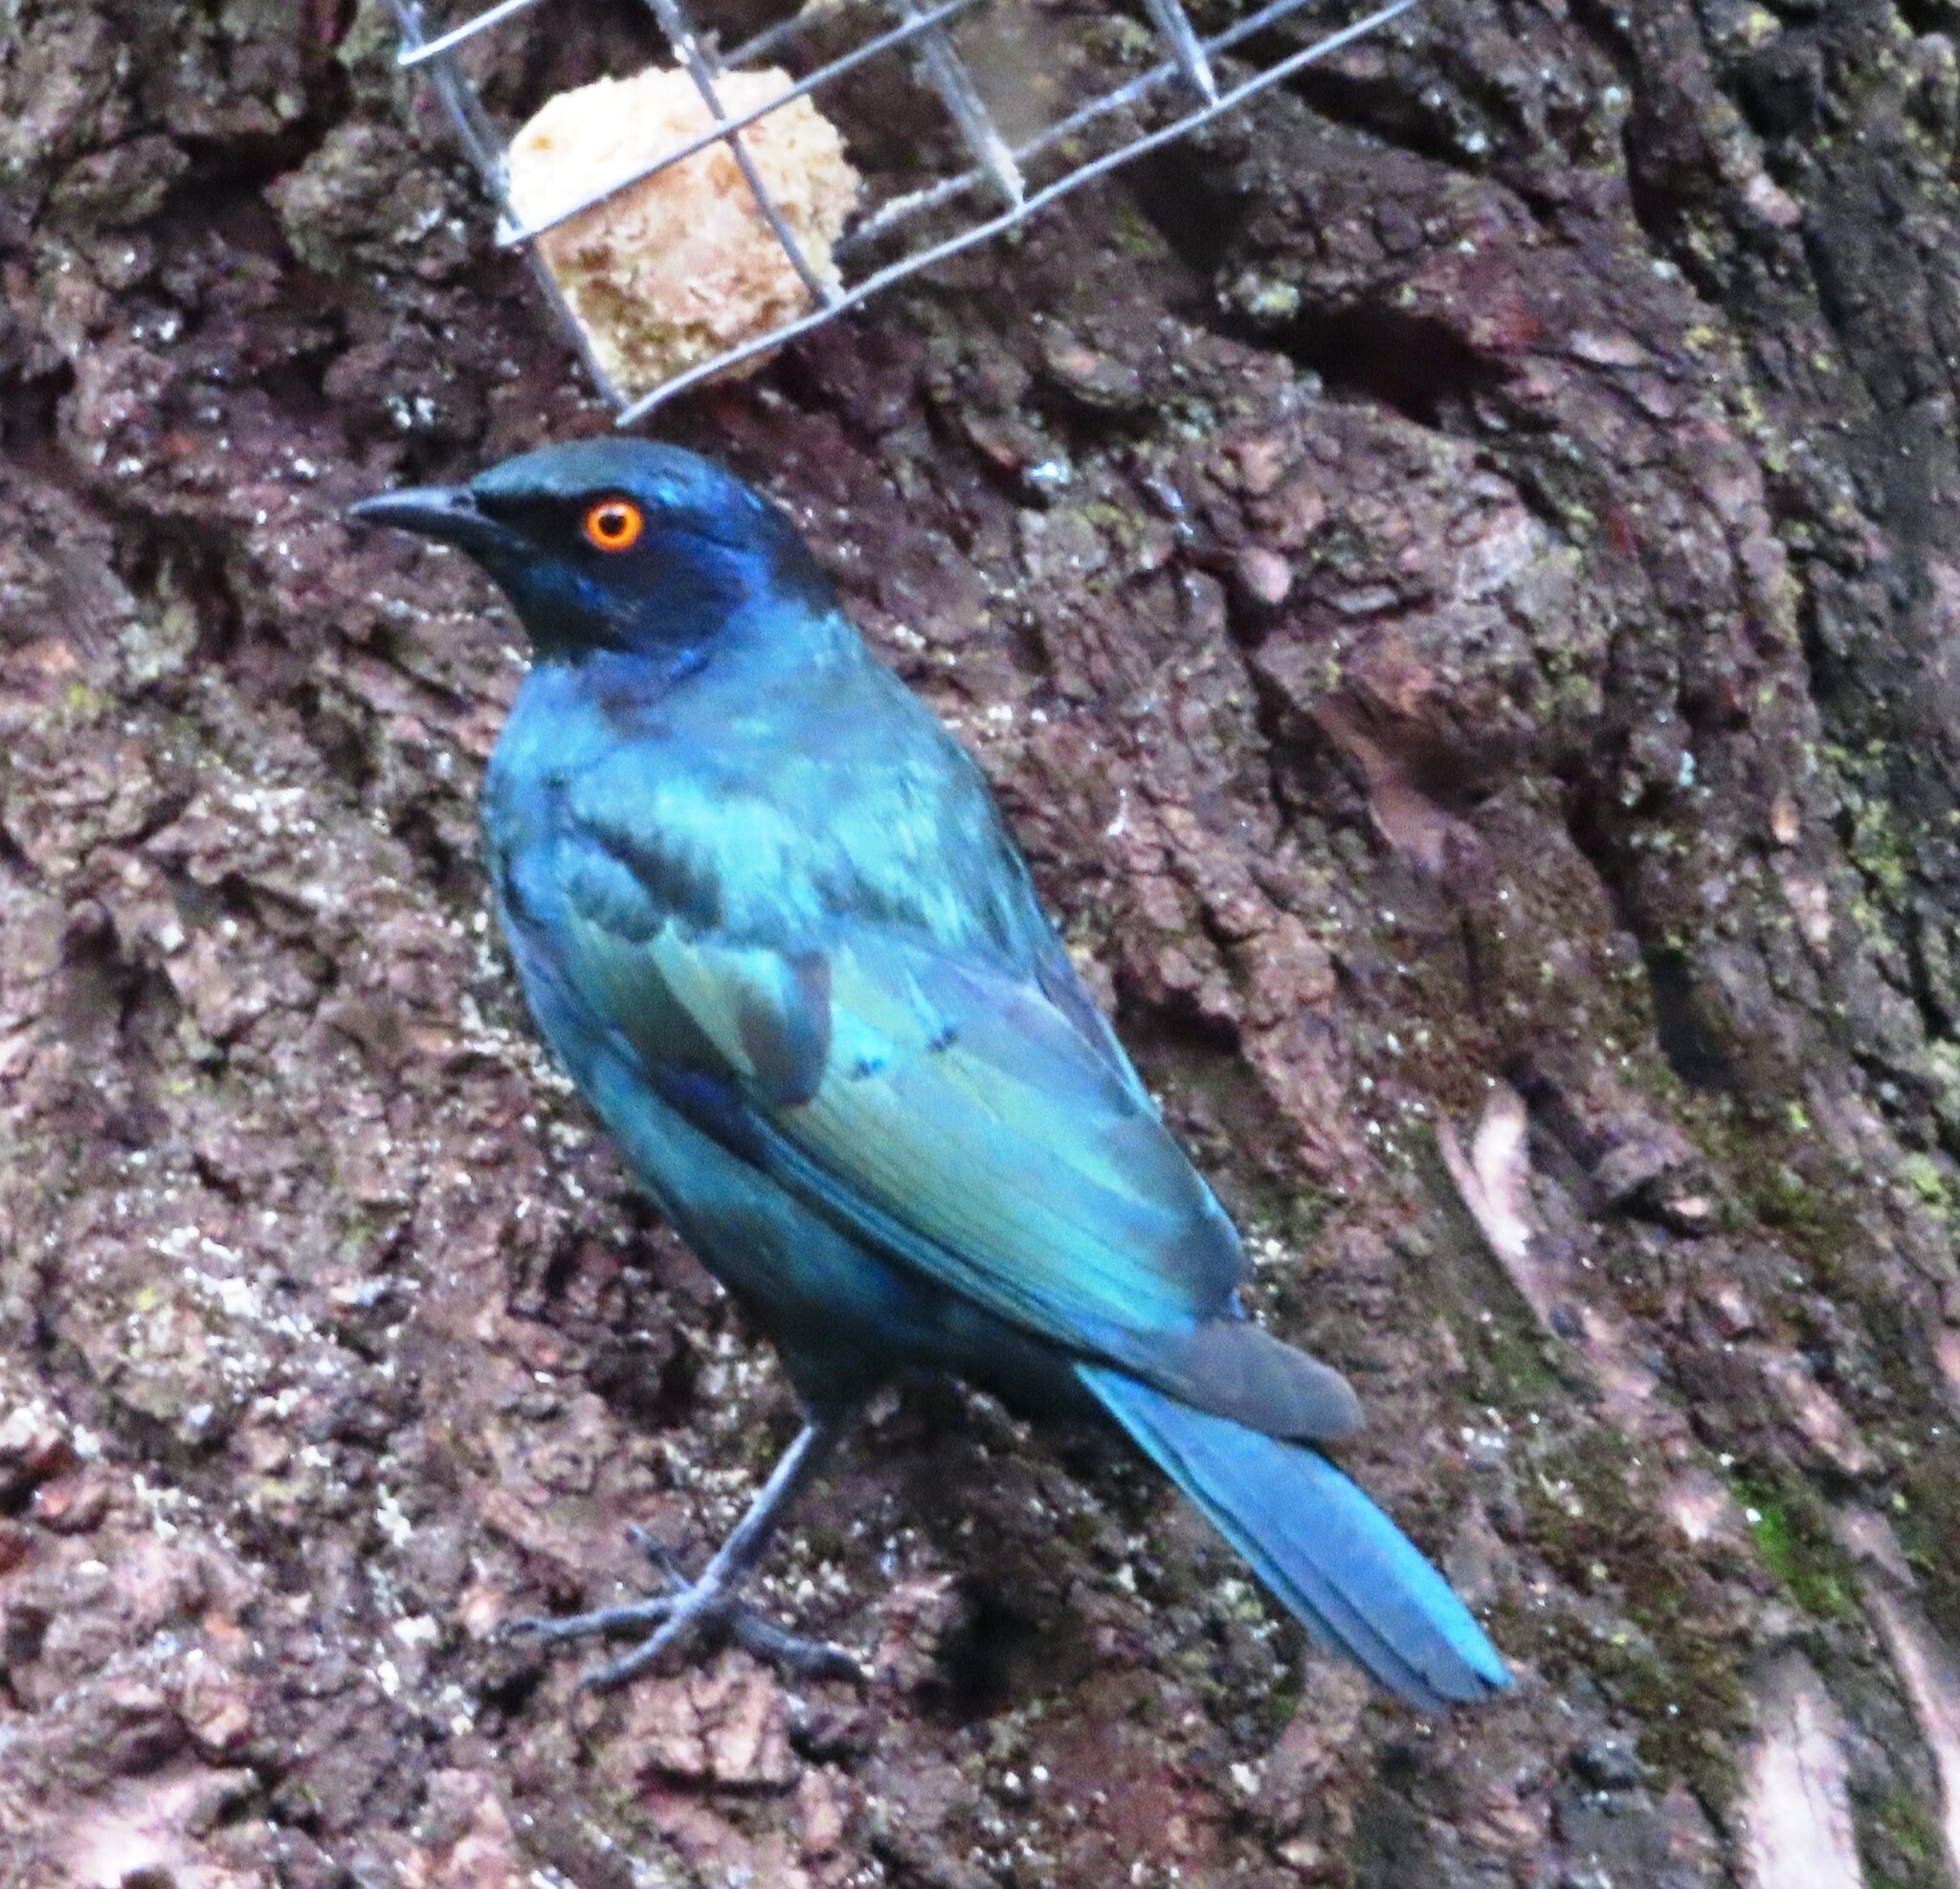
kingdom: Animalia
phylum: Chordata
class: Aves
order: Passeriformes
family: Sturnidae
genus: Lamprotornis
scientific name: Lamprotornis nitens
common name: Cape starling
